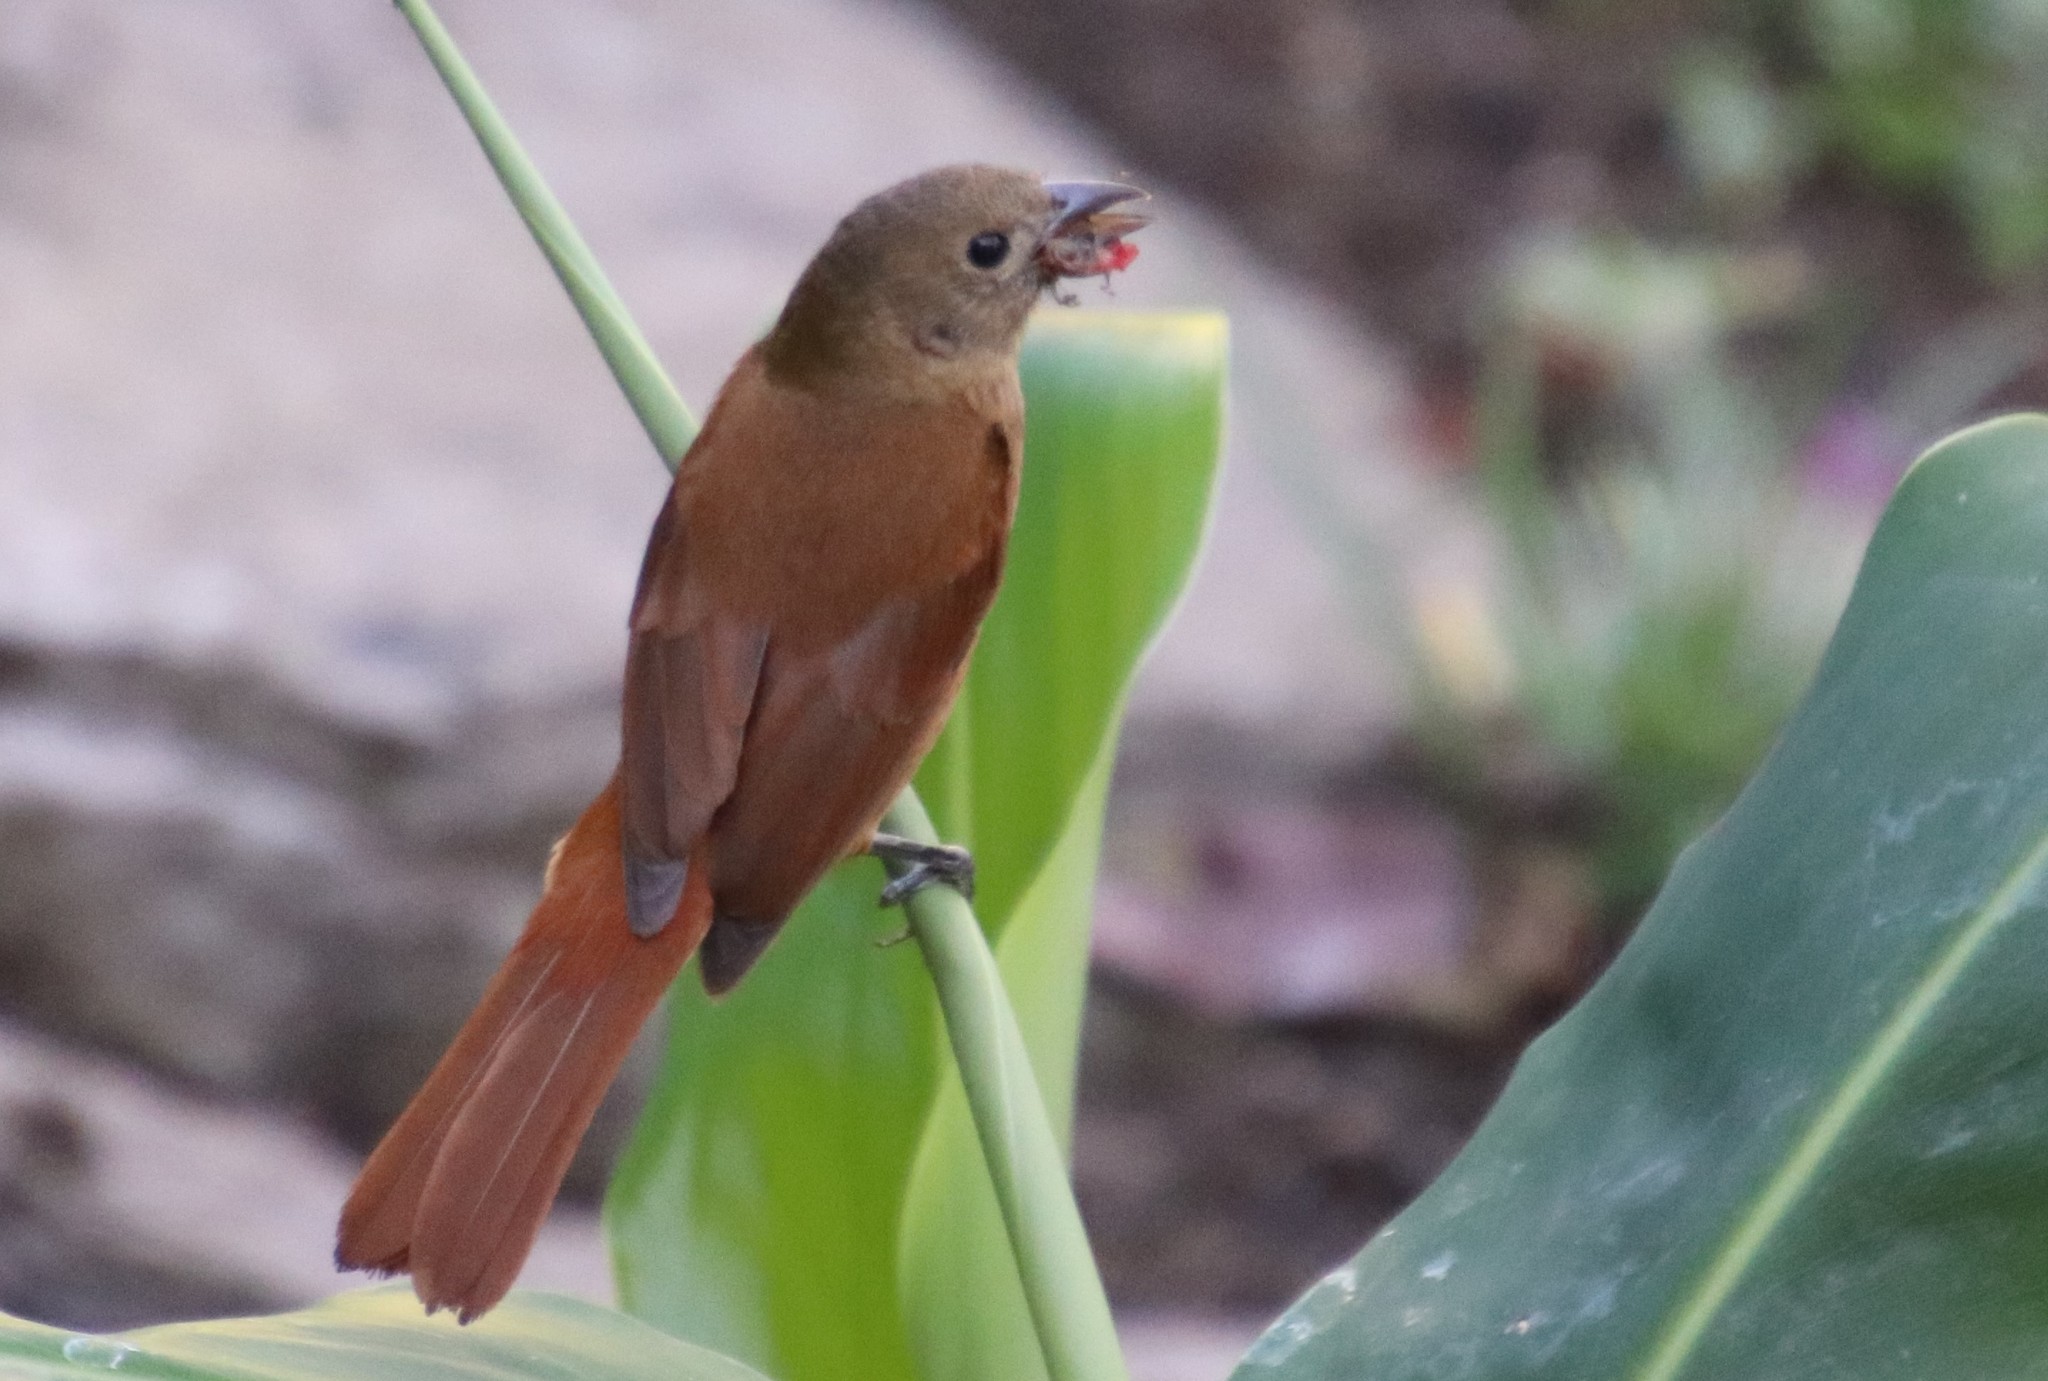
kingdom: Animalia
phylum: Chordata
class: Aves
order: Passeriformes
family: Thraupidae
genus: Tachyphonus
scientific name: Tachyphonus coronatus
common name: Ruby-crowned tanager
